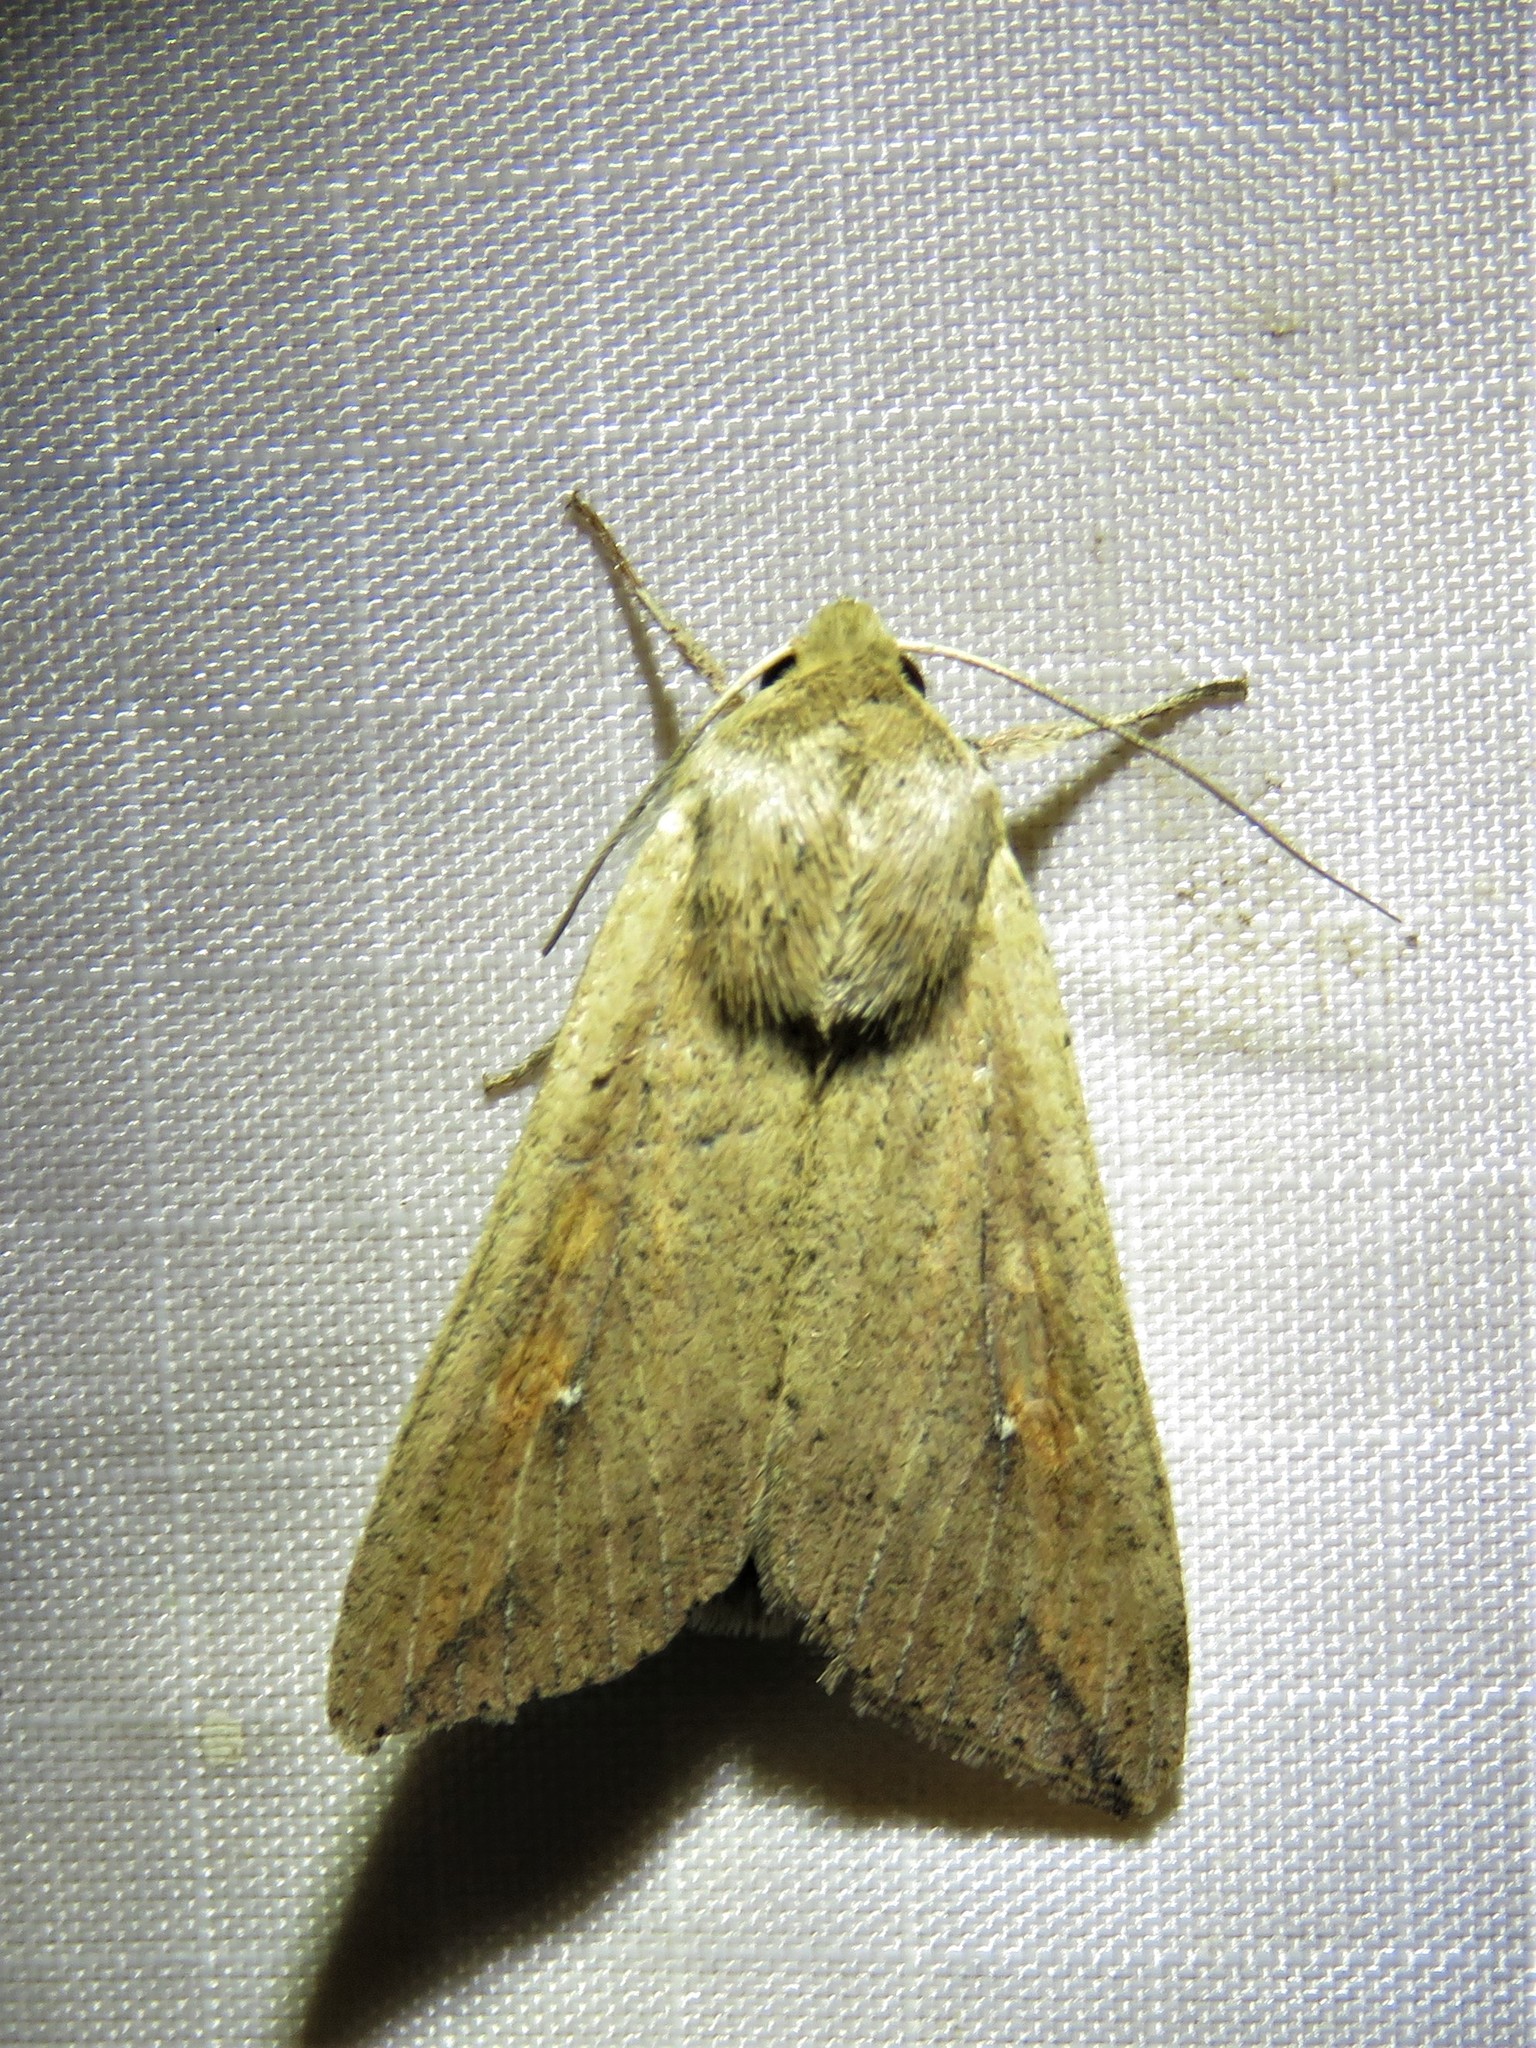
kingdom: Animalia
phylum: Arthropoda
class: Insecta
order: Lepidoptera
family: Noctuidae
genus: Mythimna
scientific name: Mythimna unipuncta
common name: White-speck
